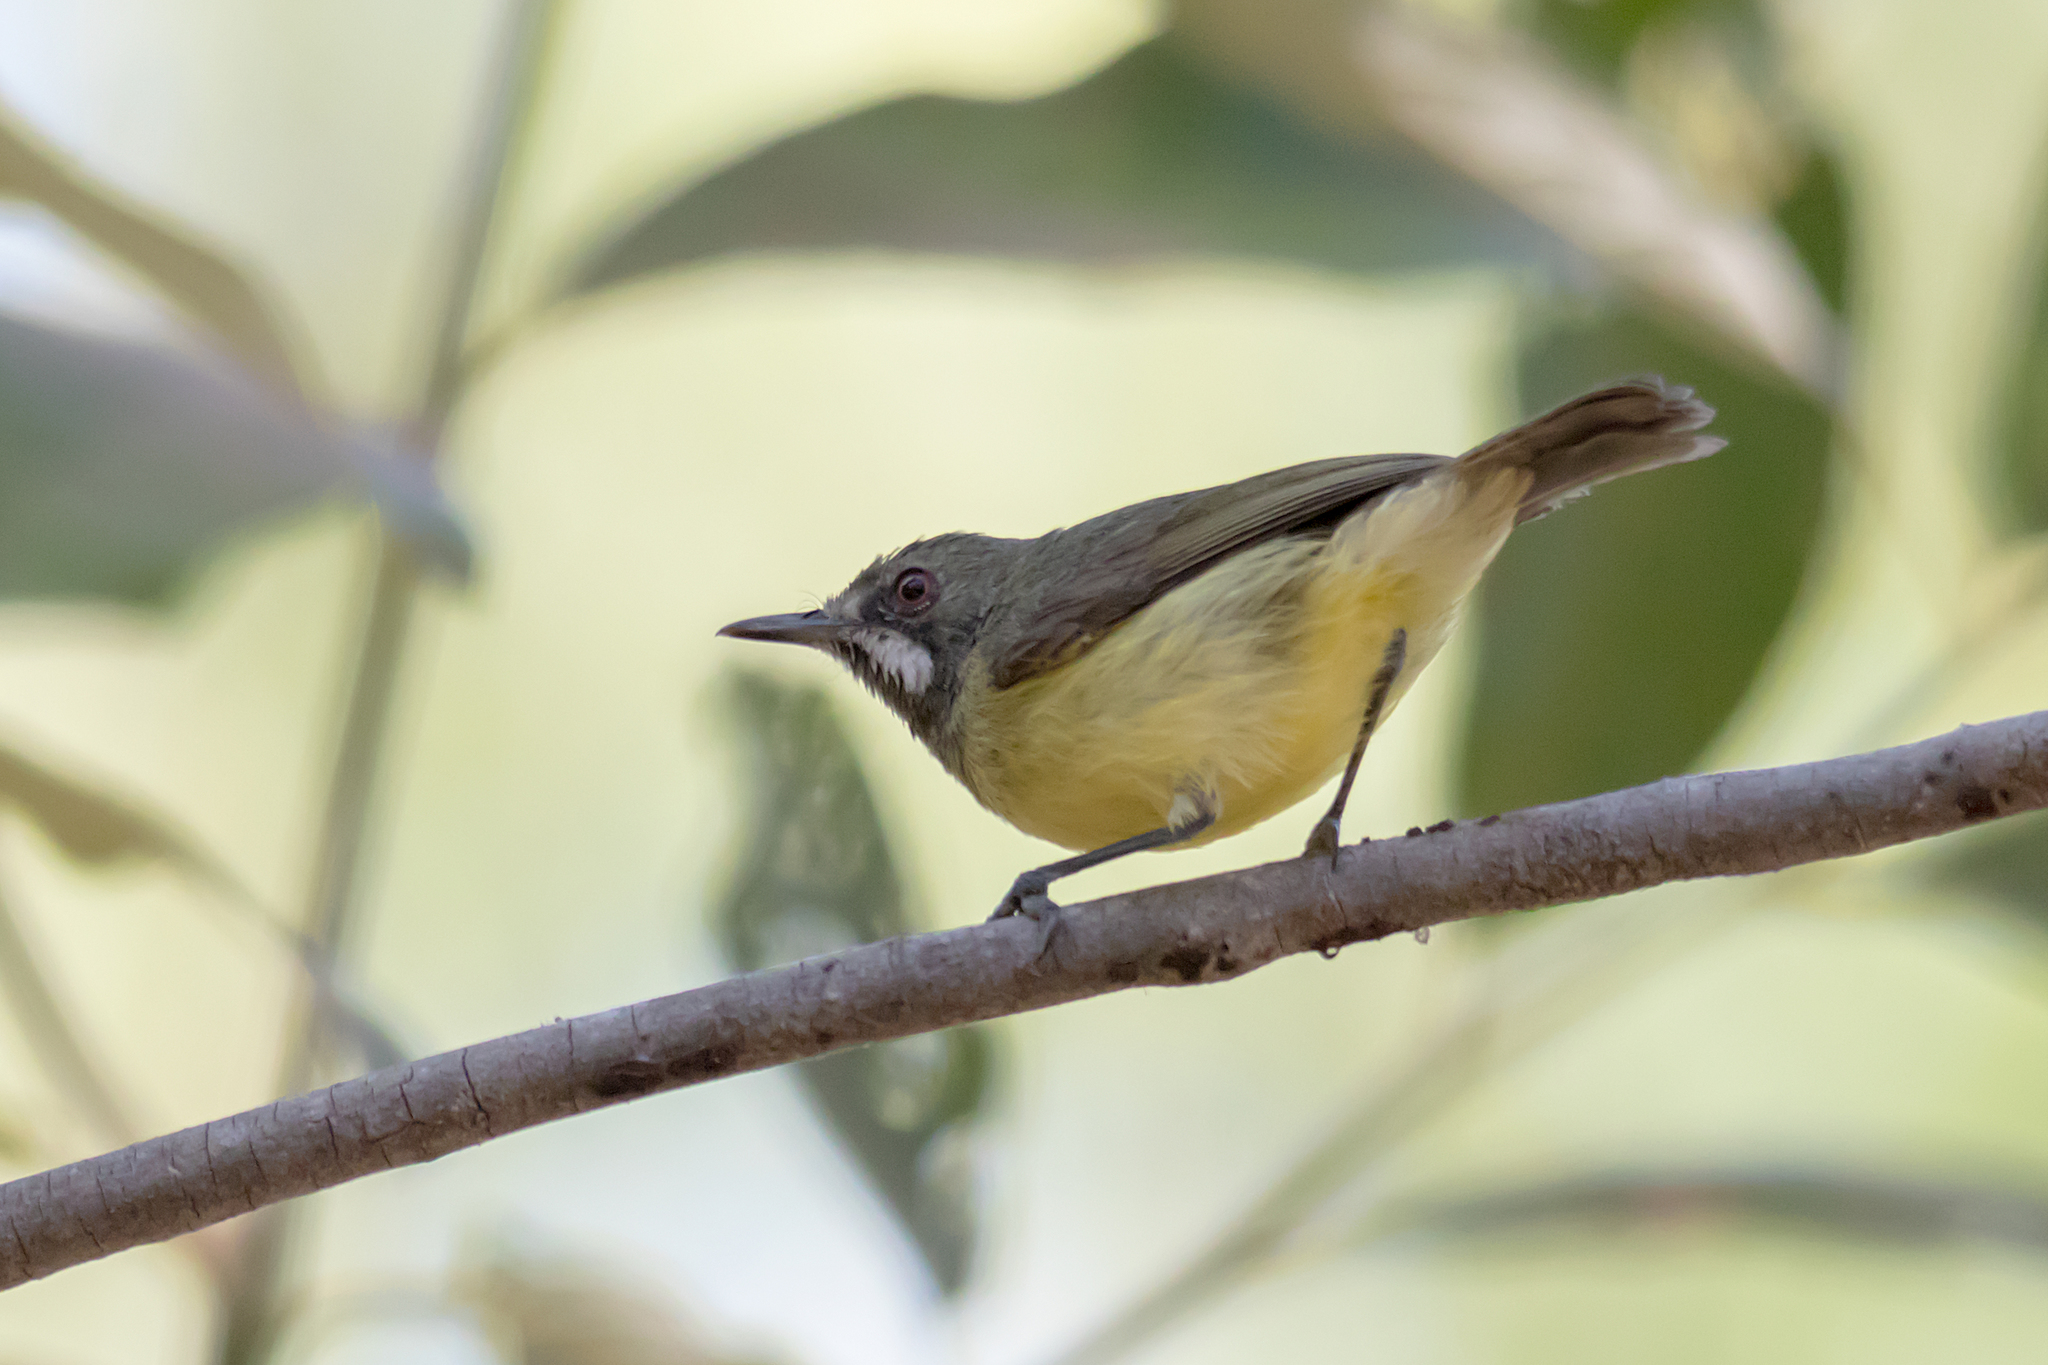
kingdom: Animalia
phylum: Chordata
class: Aves
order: Passeriformes
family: Acanthizidae
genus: Gerygone
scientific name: Gerygone palpebrosa
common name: Fairy gerygone
